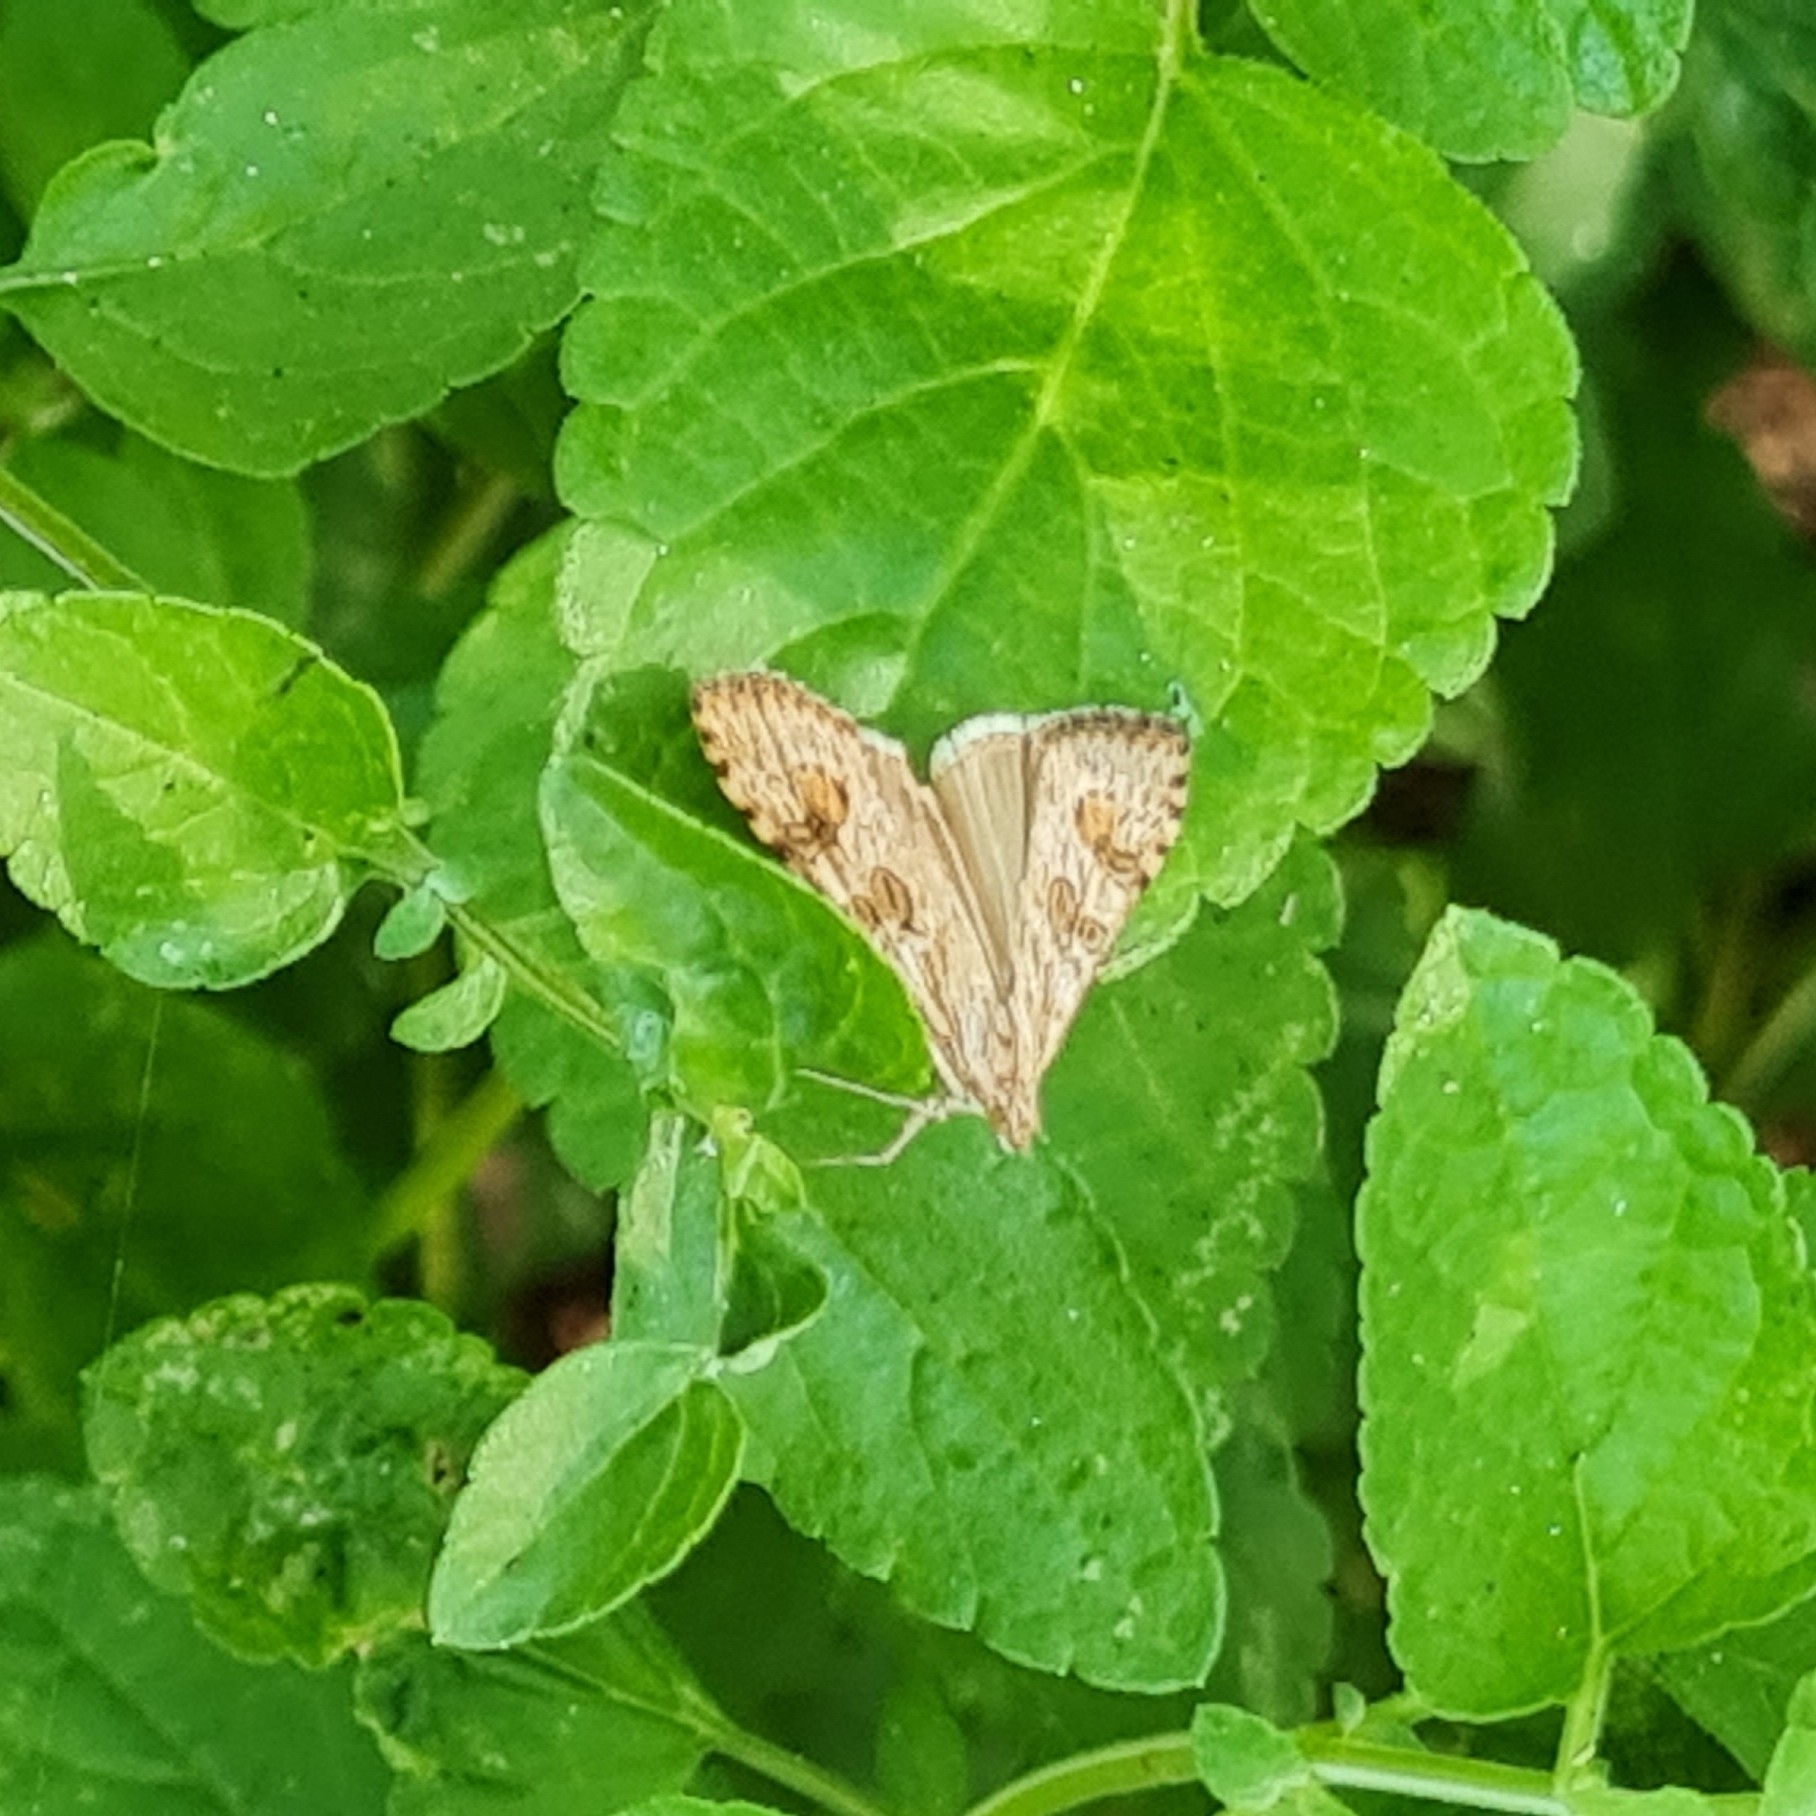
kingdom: Animalia
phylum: Arthropoda
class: Insecta
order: Lepidoptera
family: Crambidae
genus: Nomophila
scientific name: Nomophila noctuella
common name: Rush veneer
